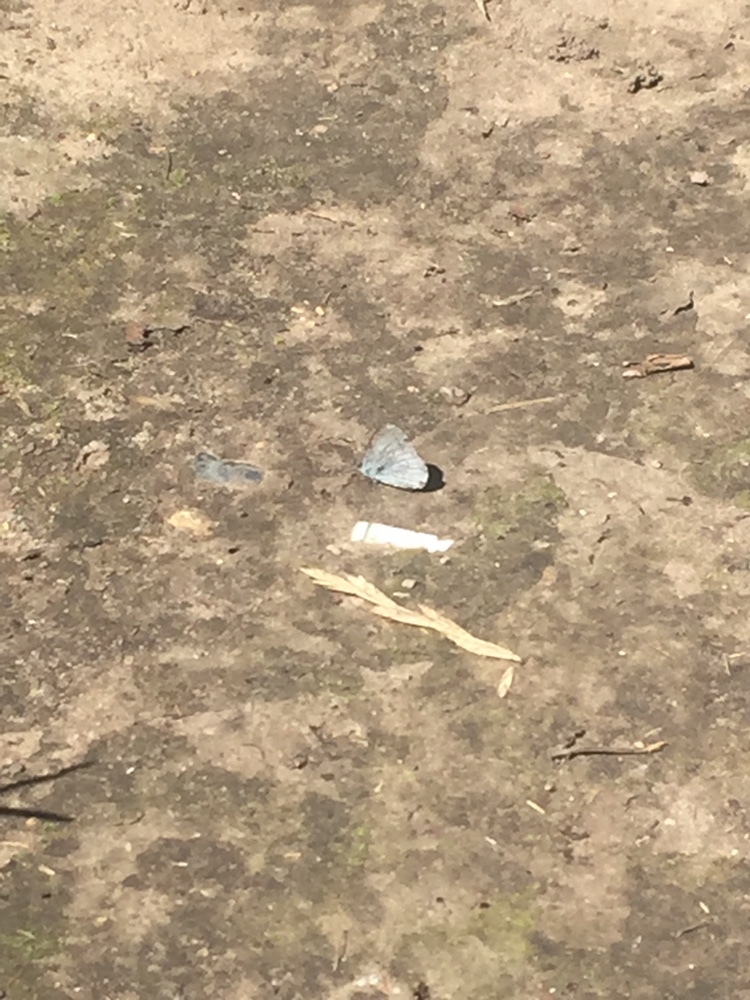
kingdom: Animalia
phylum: Arthropoda
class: Insecta
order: Lepidoptera
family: Lycaenidae
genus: Celastrina
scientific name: Celastrina argiolus
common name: Holly blue
